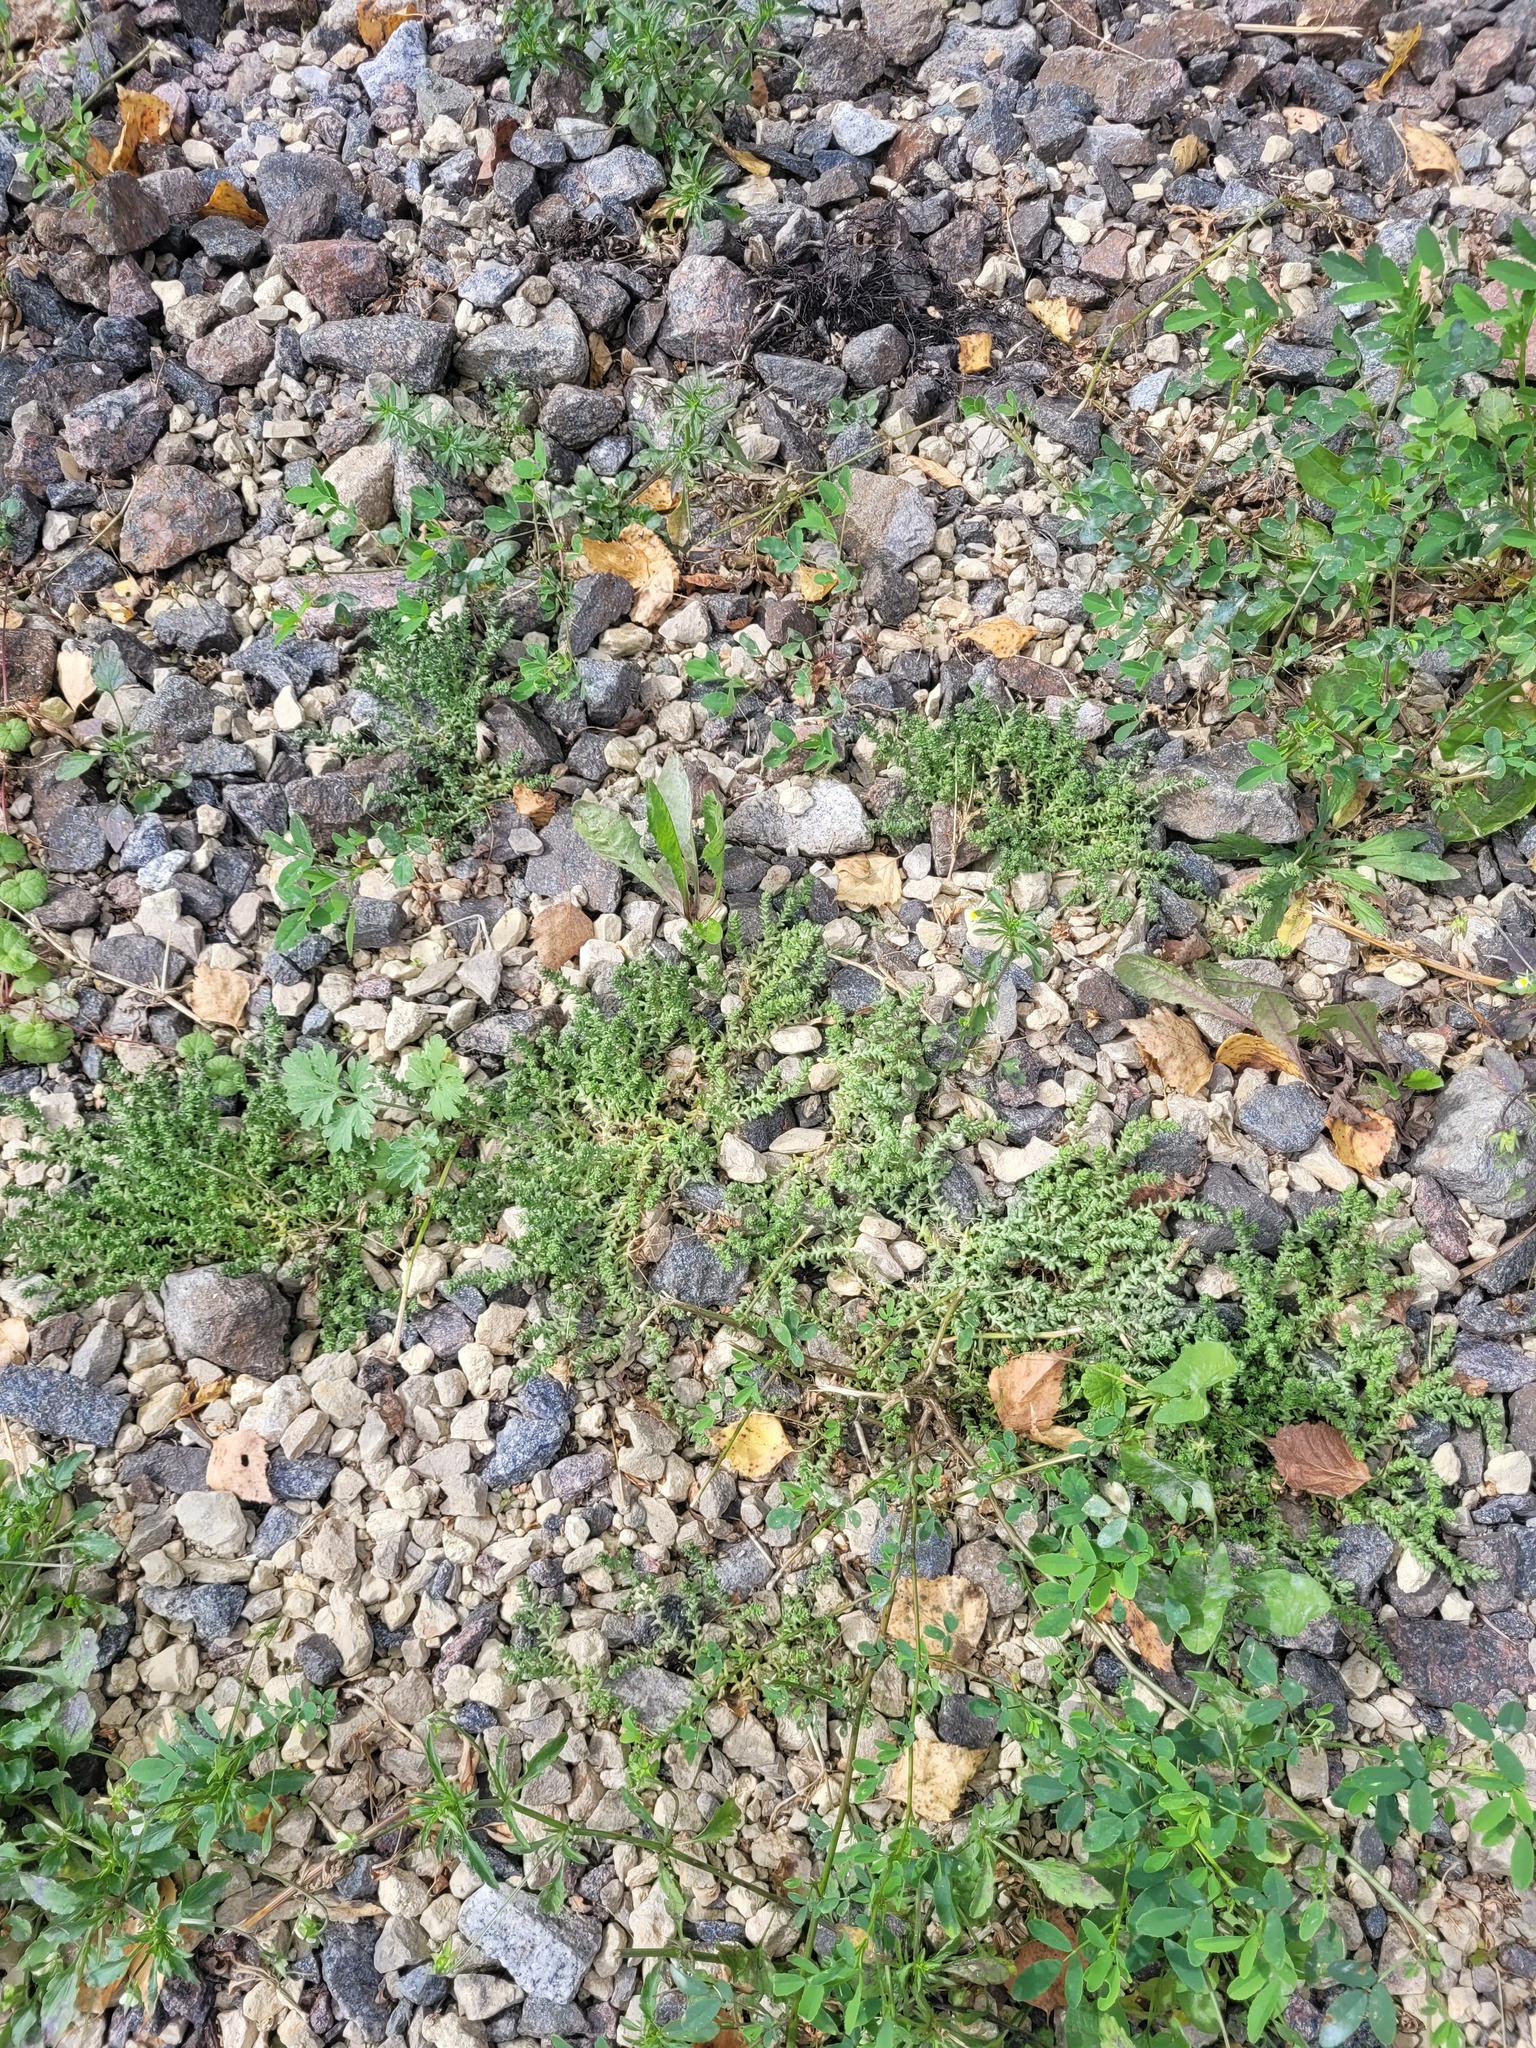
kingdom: Plantae
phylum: Tracheophyta
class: Magnoliopsida
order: Saxifragales
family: Crassulaceae
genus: Sedum
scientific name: Sedum acre
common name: Biting stonecrop
